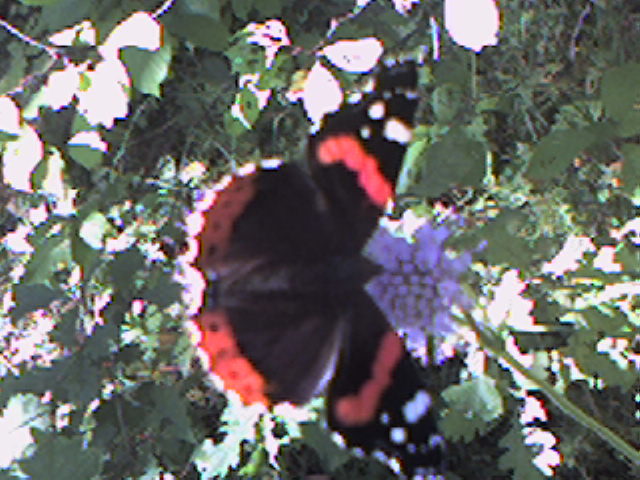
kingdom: Animalia
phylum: Arthropoda
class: Insecta
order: Lepidoptera
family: Nymphalidae
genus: Vanessa
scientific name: Vanessa atalanta
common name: Red admiral
